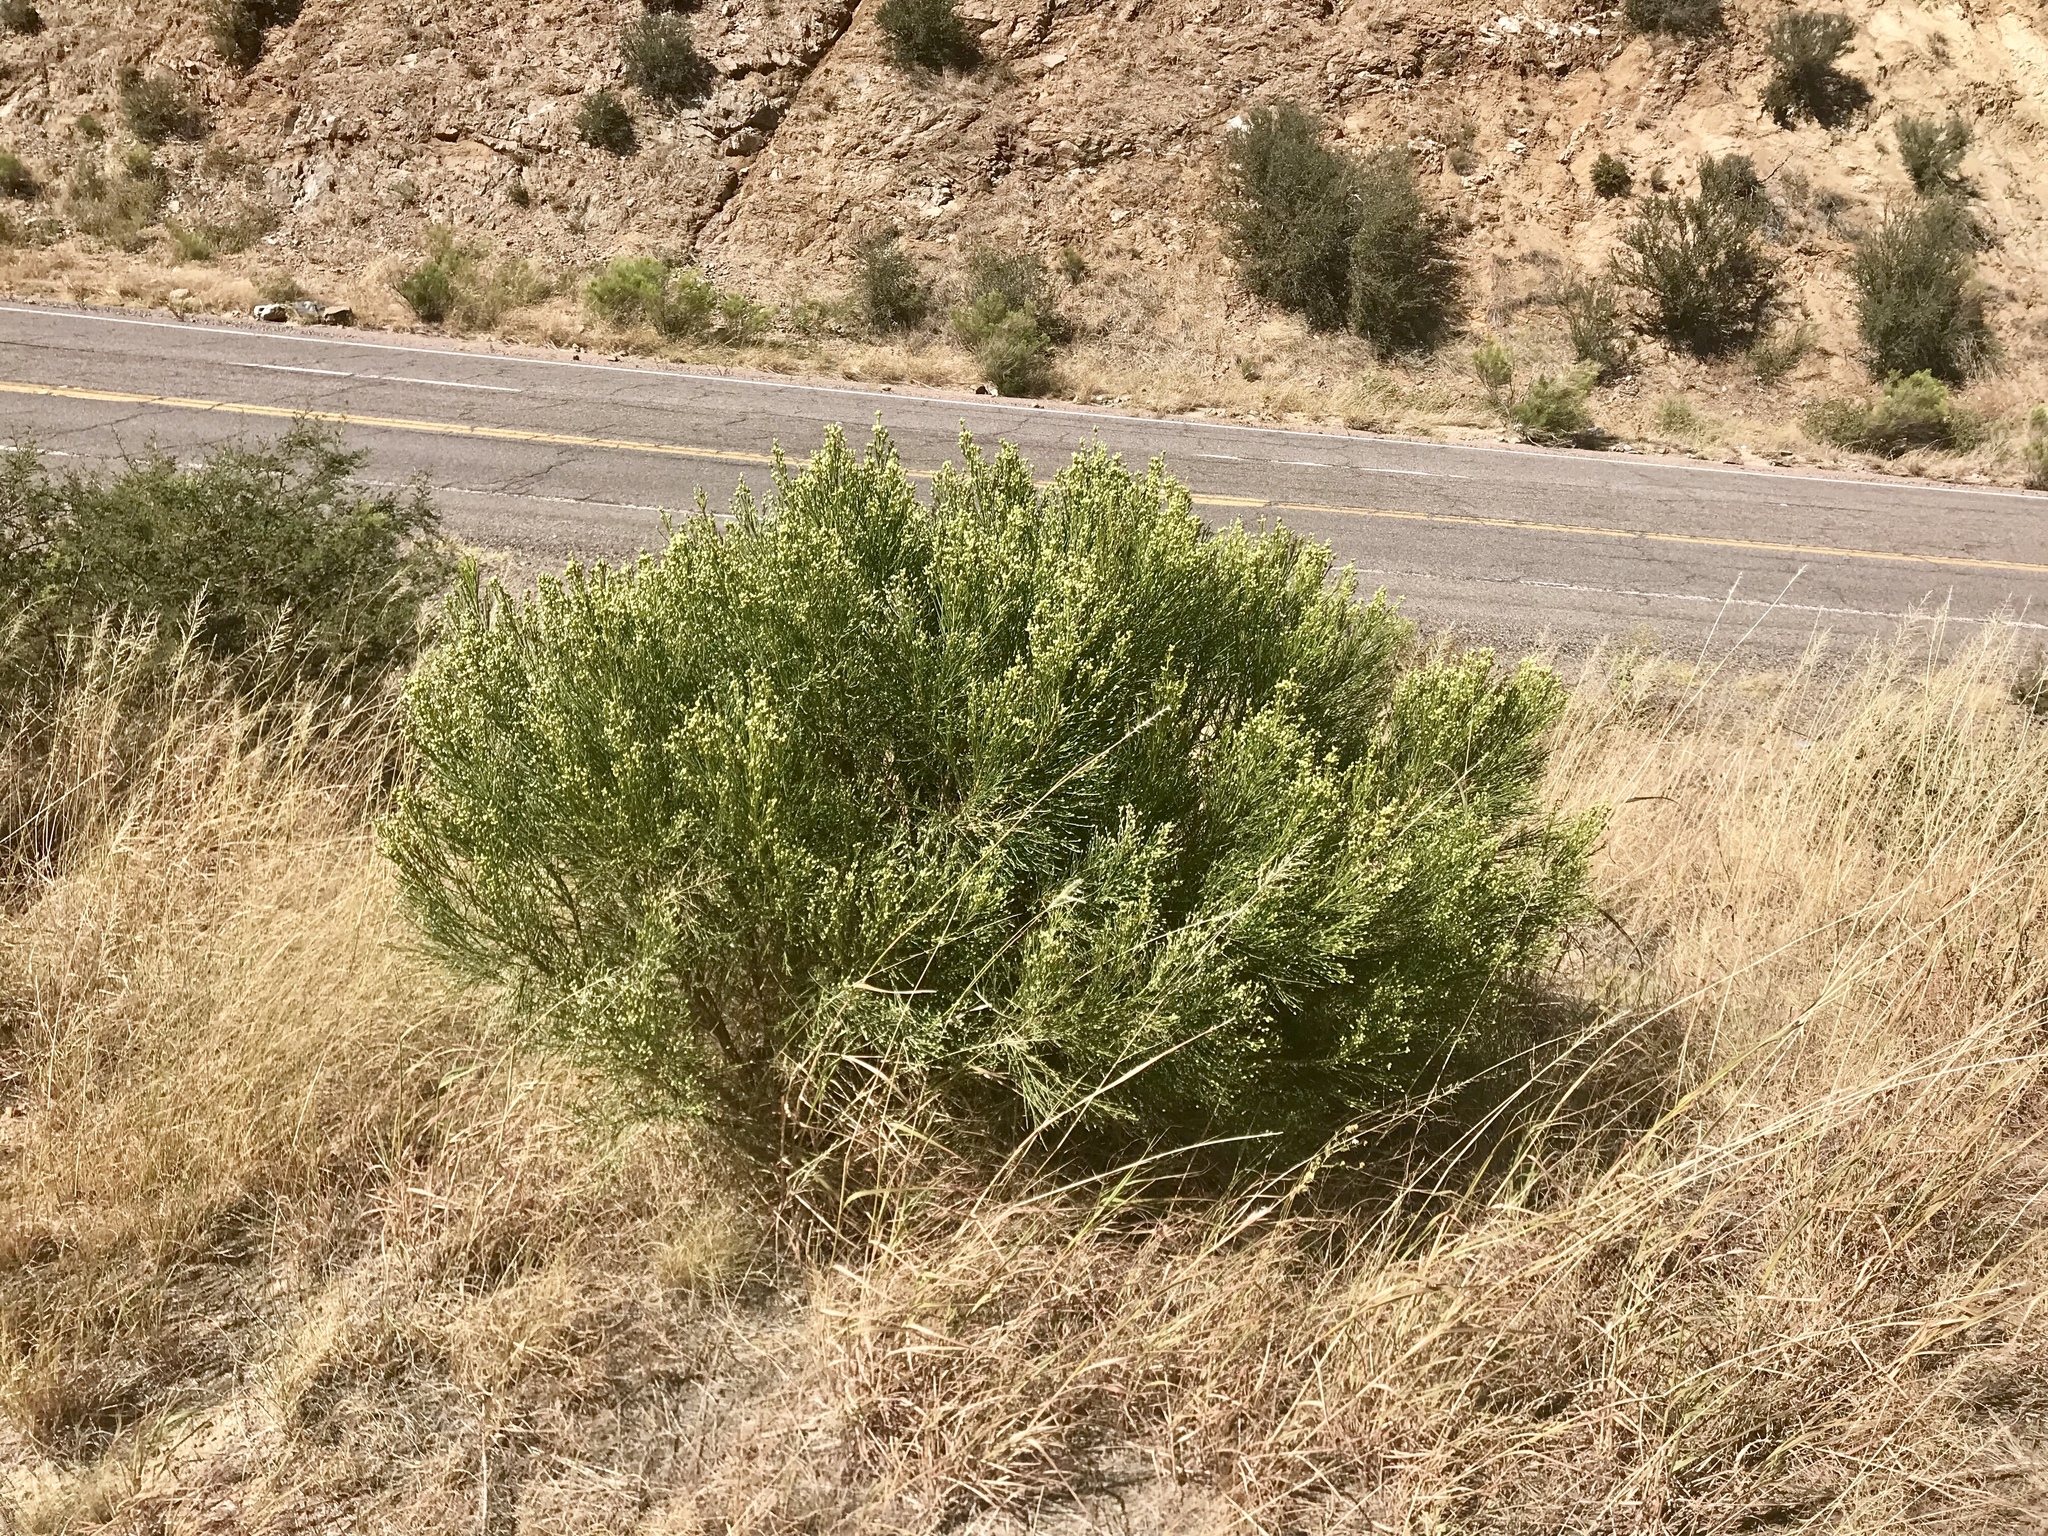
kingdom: Plantae
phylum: Tracheophyta
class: Magnoliopsida
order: Asterales
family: Asteraceae
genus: Baccharis
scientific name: Baccharis sarothroides
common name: Desert-broom
